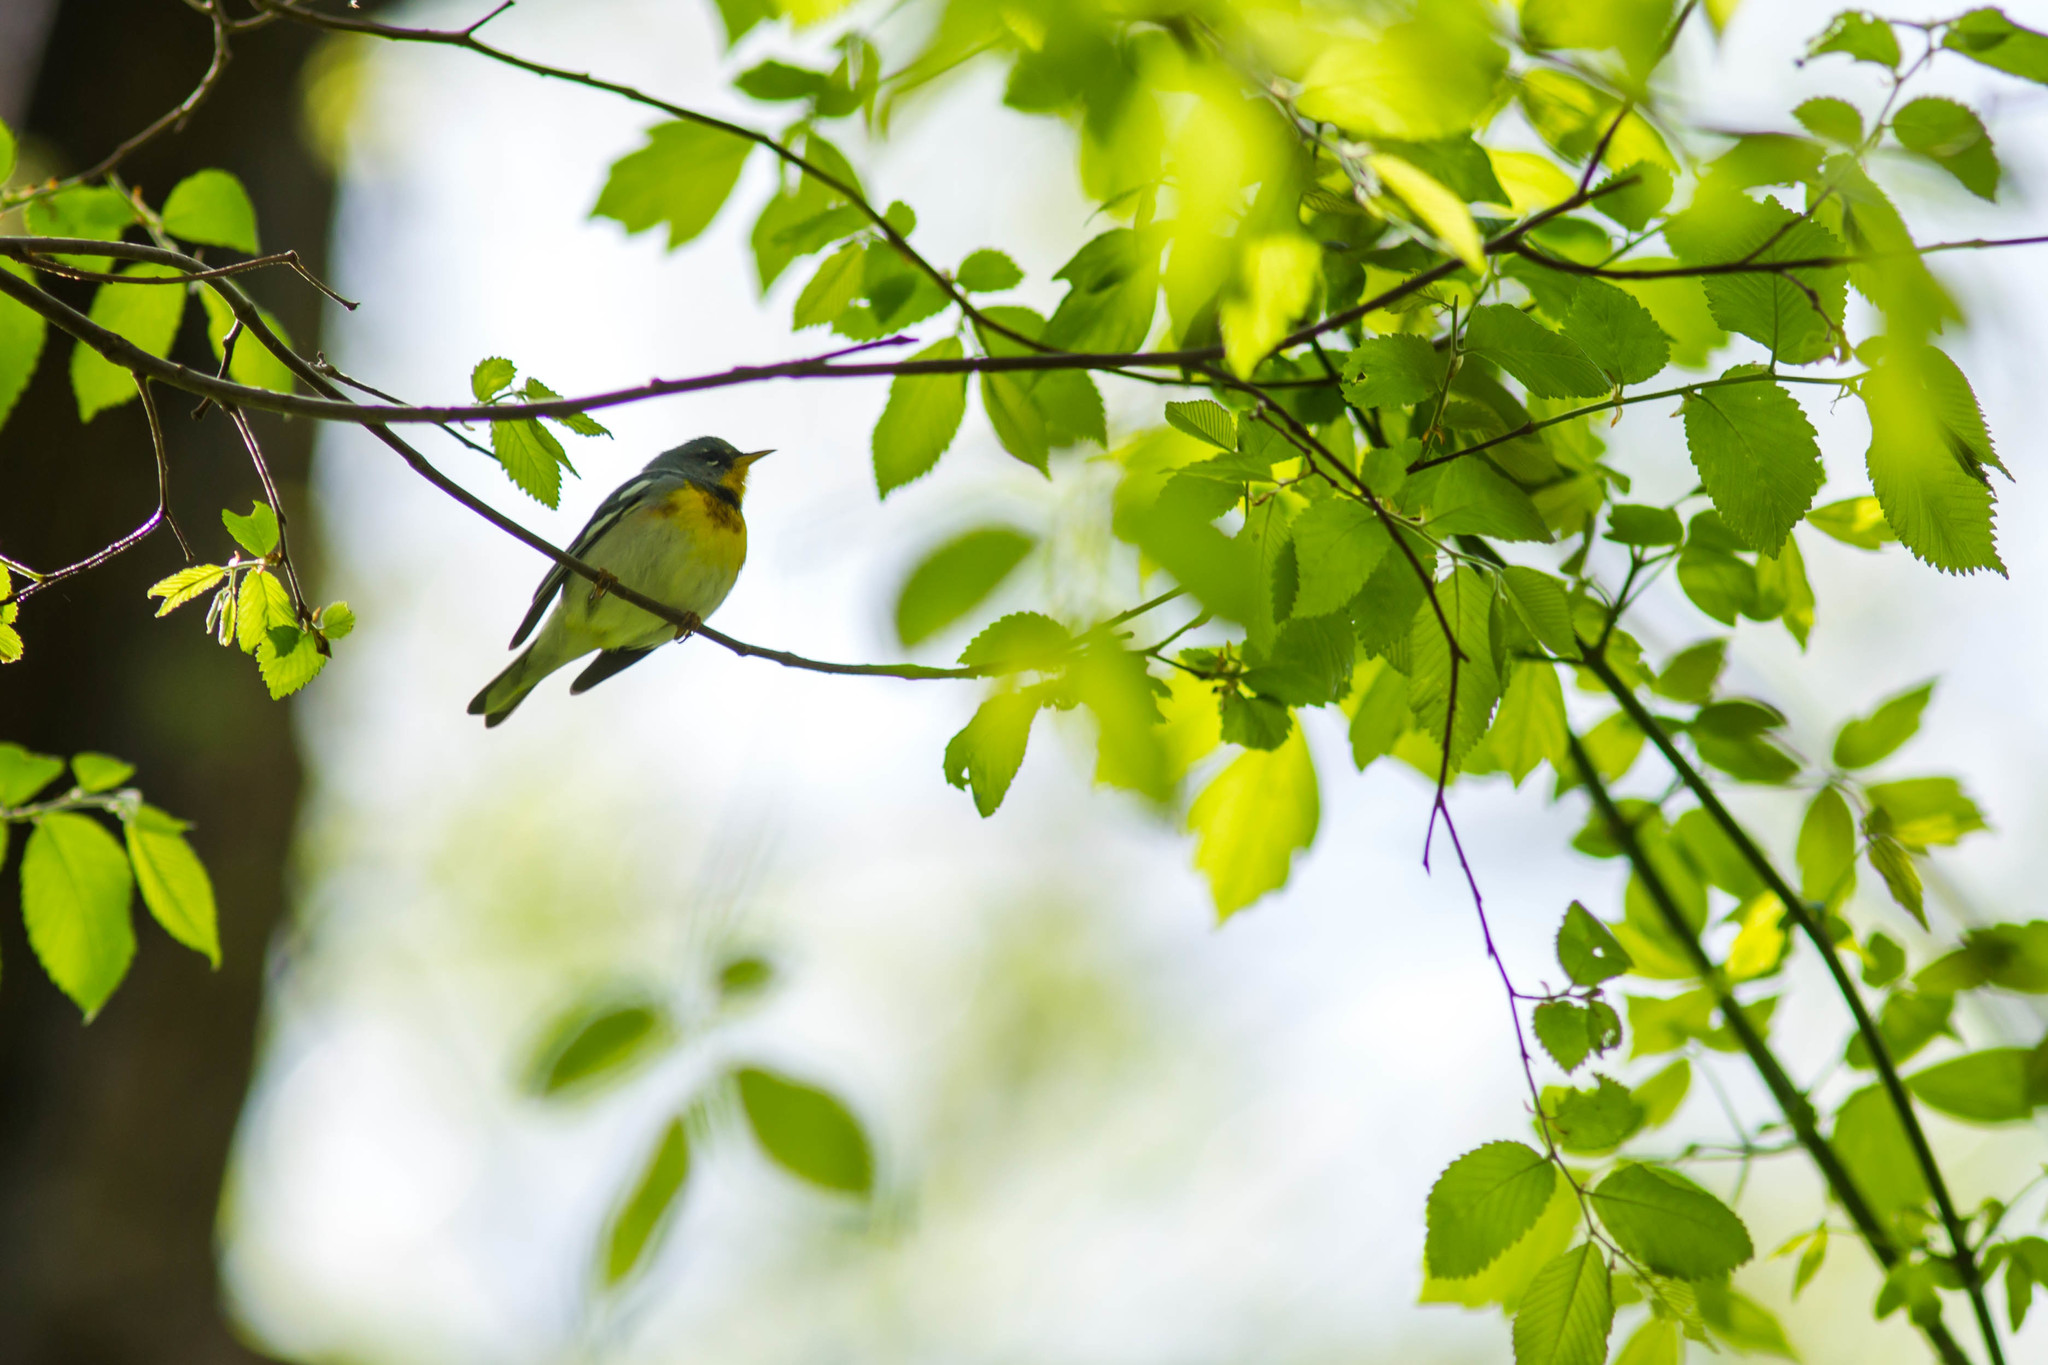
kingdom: Animalia
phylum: Chordata
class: Aves
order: Passeriformes
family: Parulidae
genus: Setophaga
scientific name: Setophaga americana
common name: Northern parula
